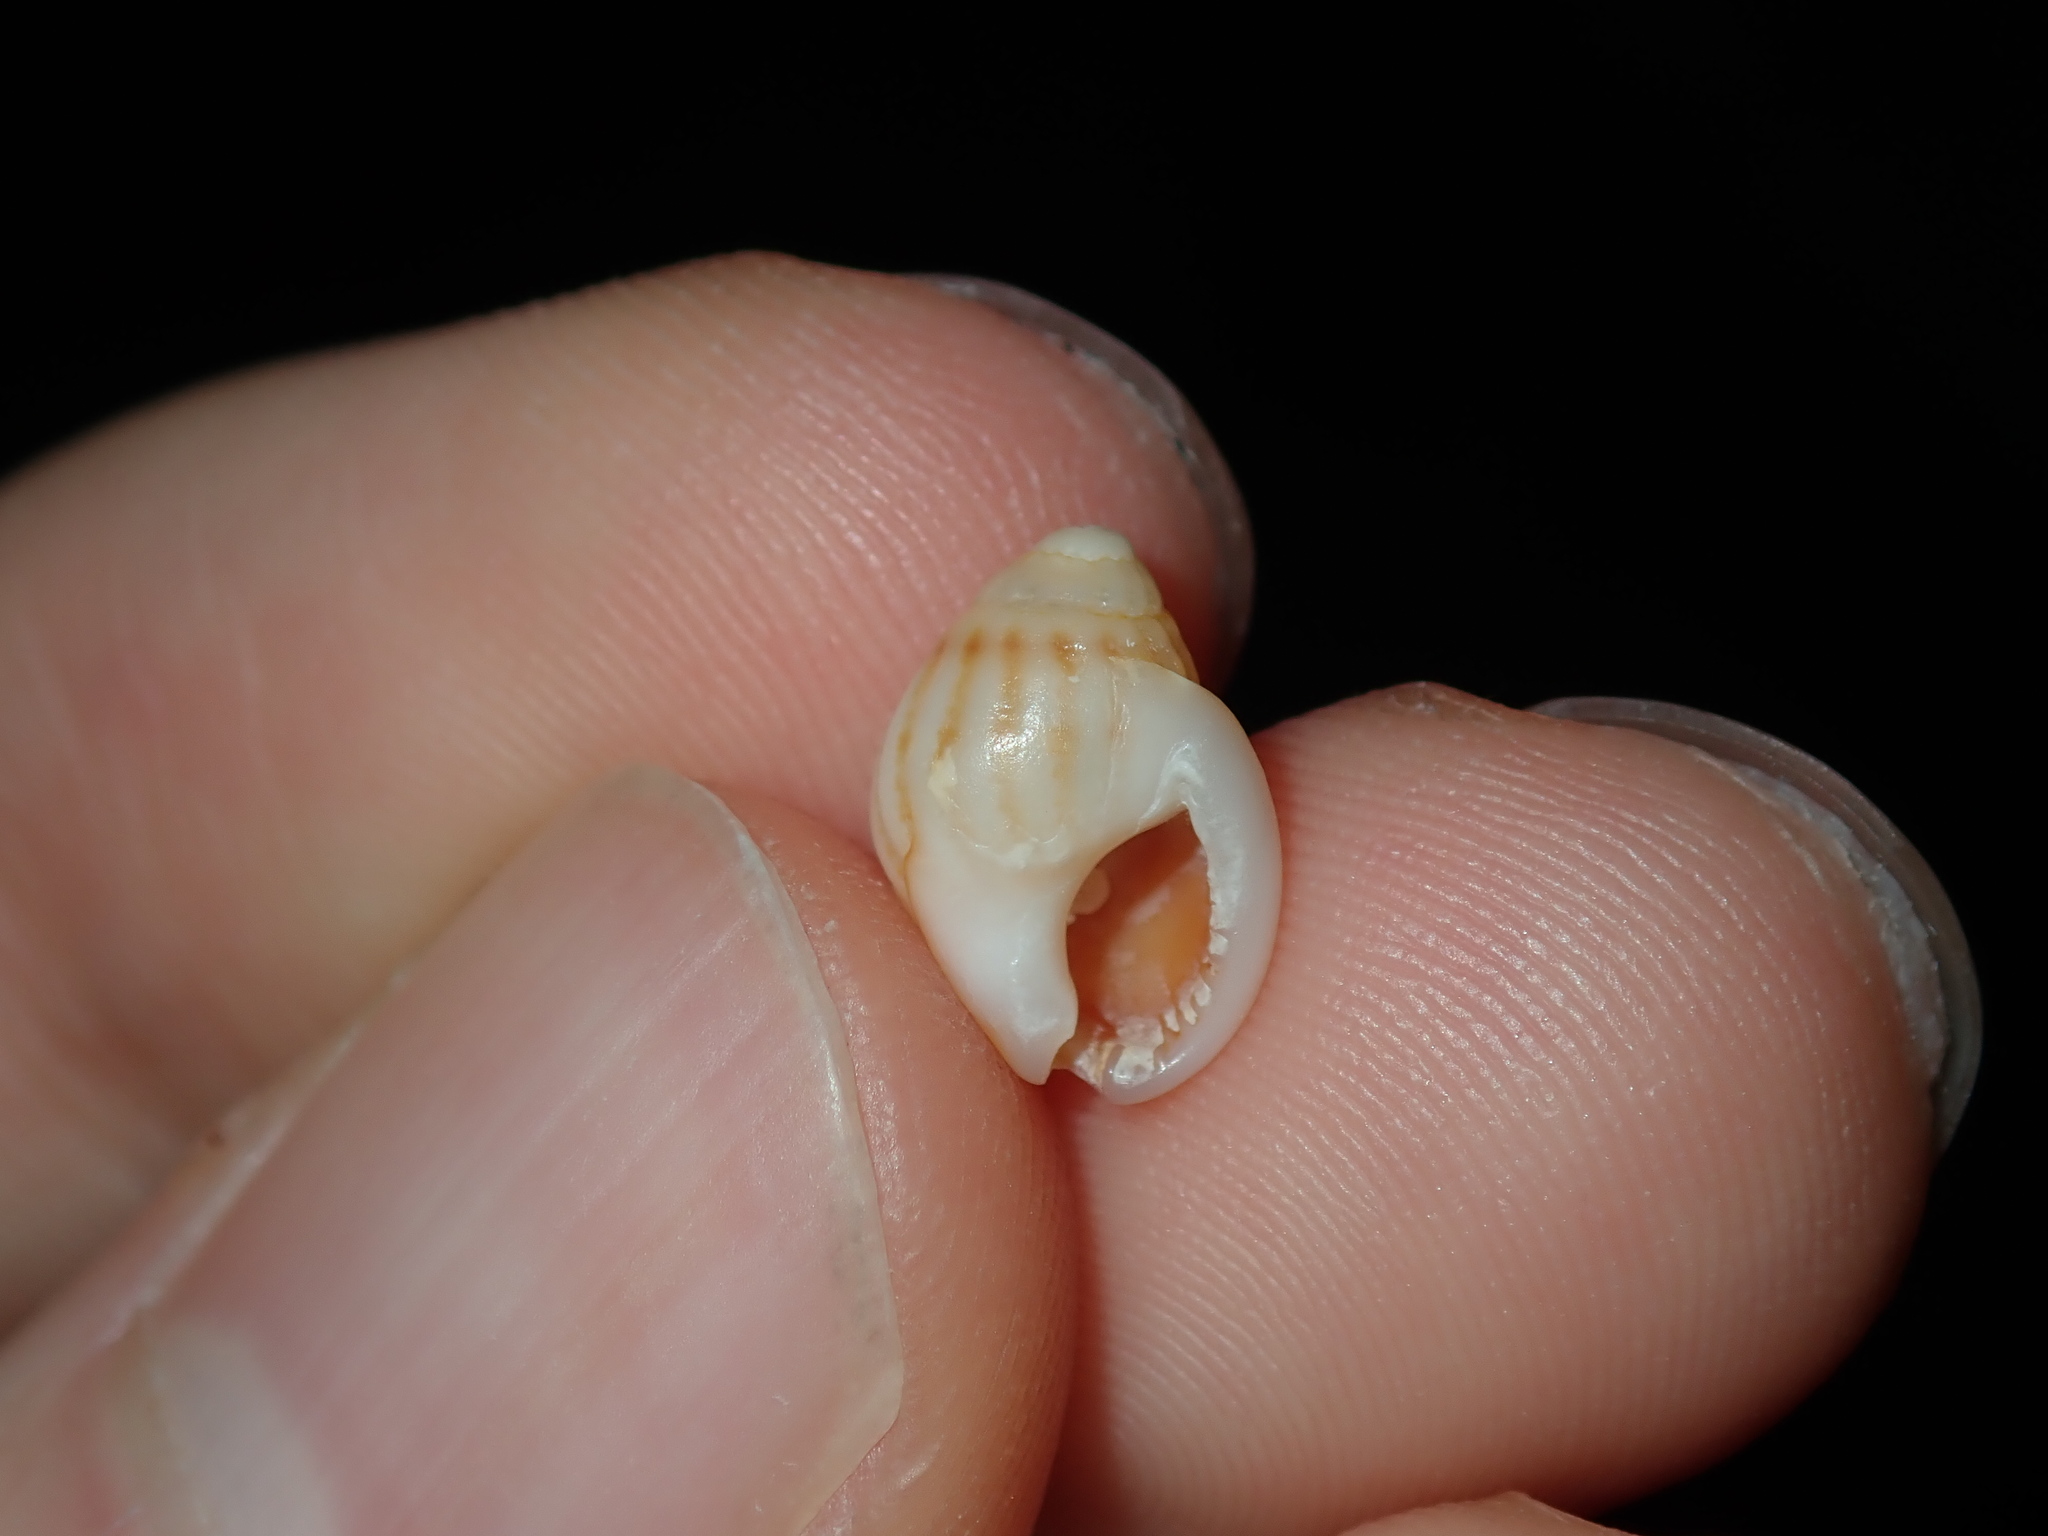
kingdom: Animalia
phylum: Mollusca
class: Gastropoda
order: Neogastropoda
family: Nassariidae
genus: Nassarius
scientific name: Nassarius jonasii
